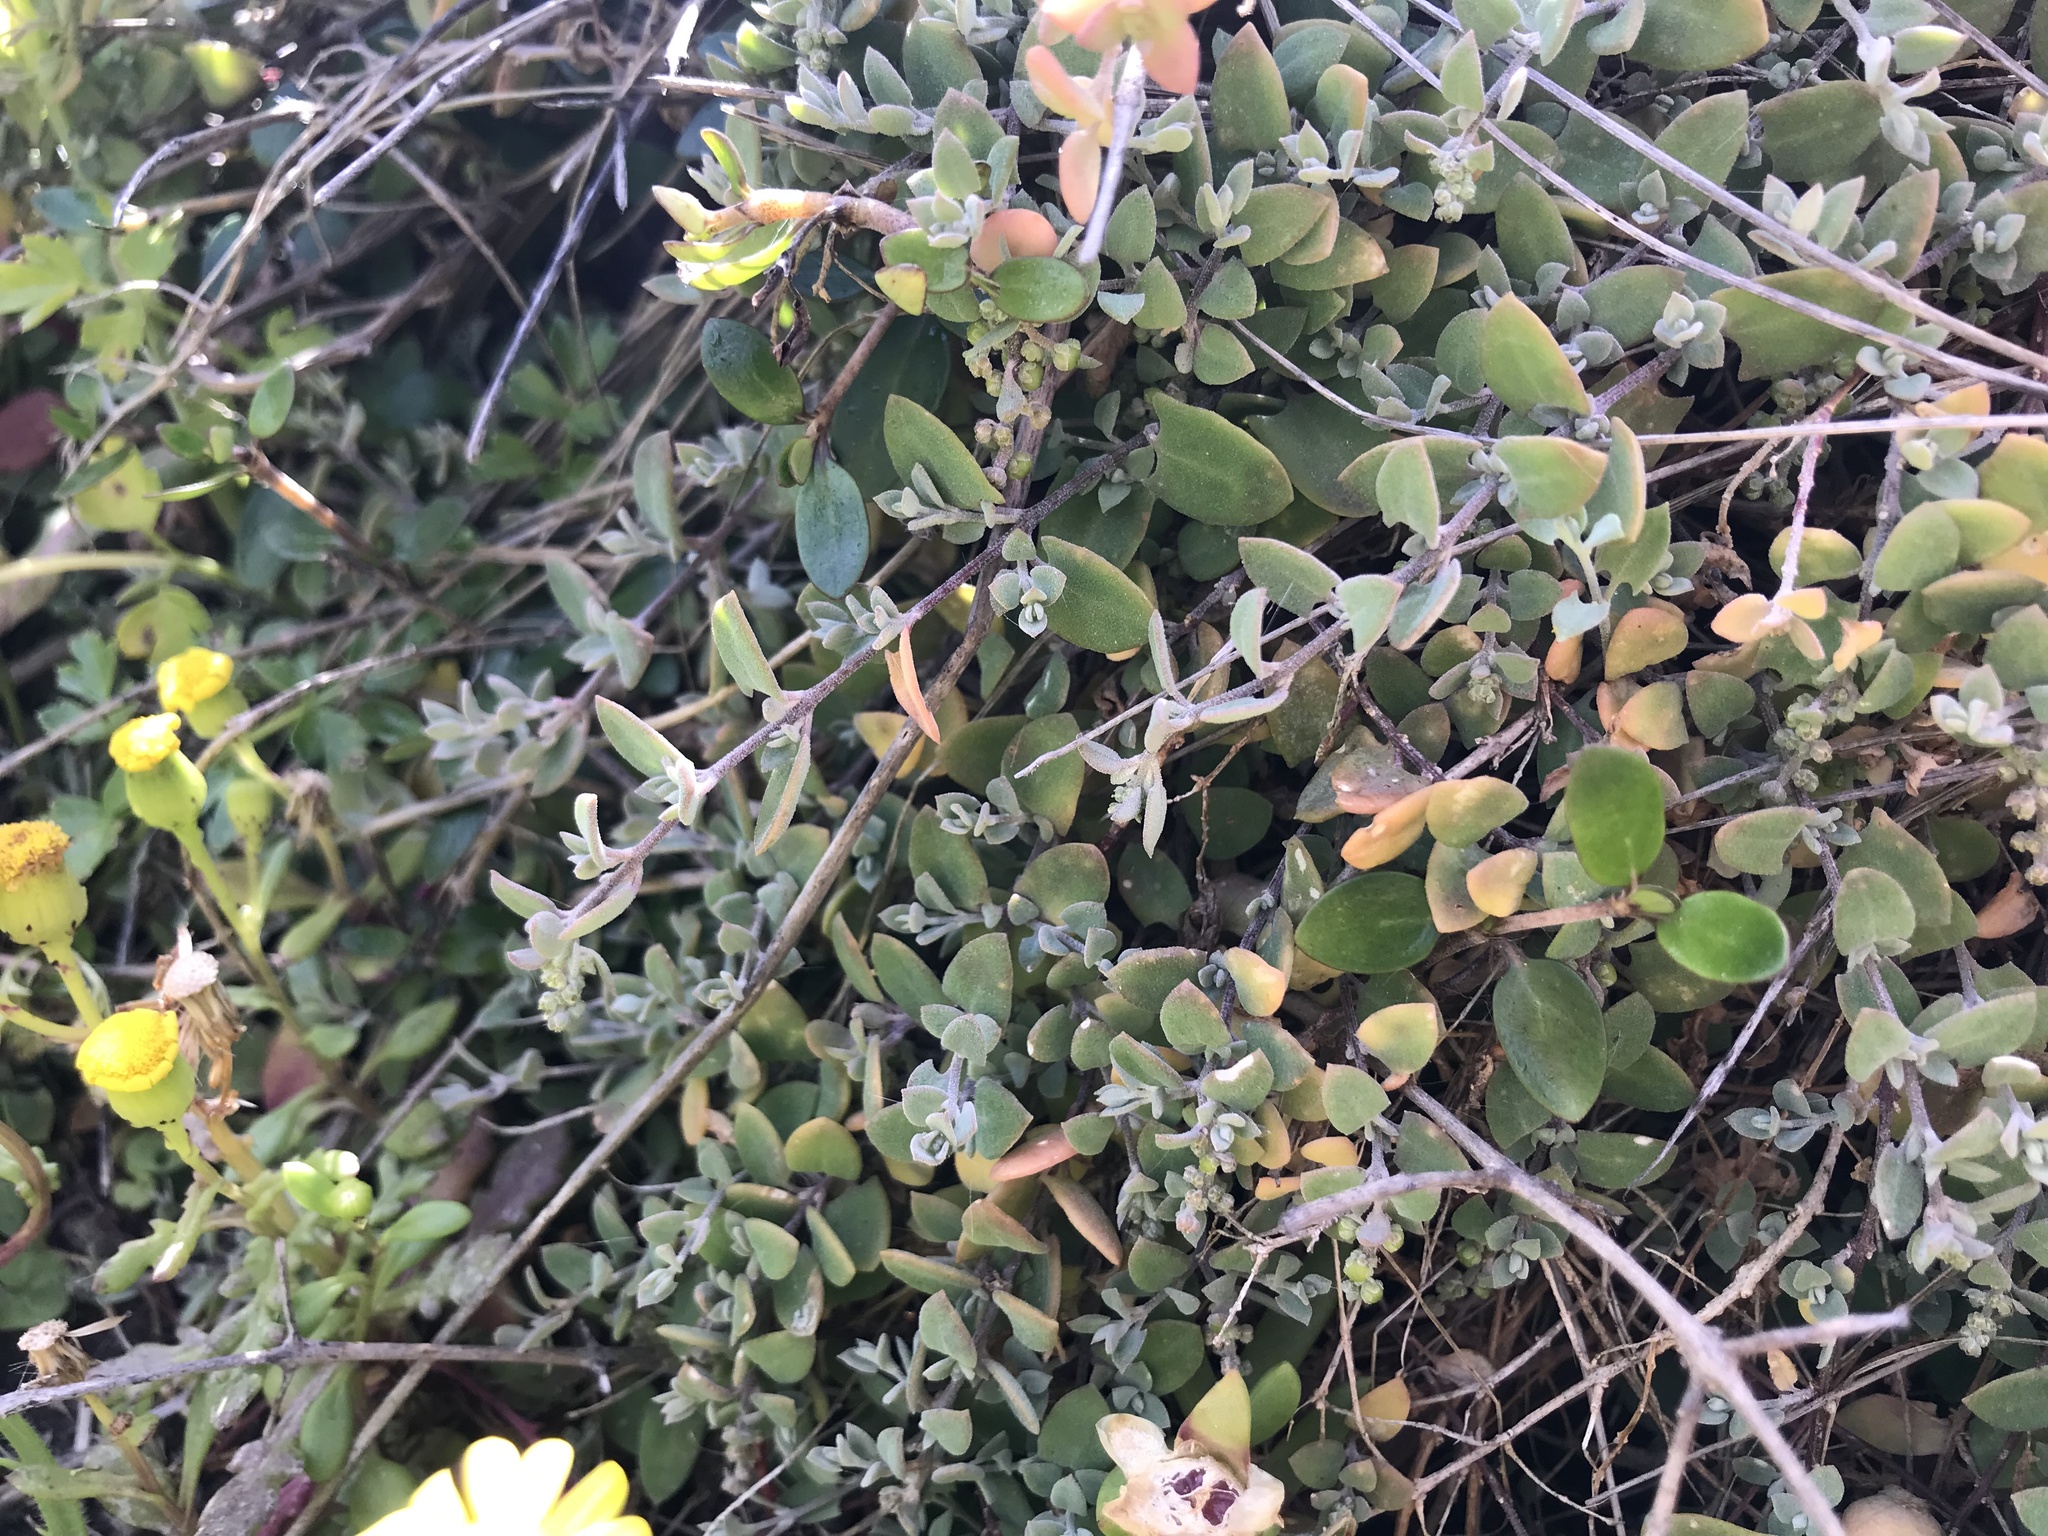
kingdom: Plantae
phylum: Tracheophyta
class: Magnoliopsida
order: Caryophyllales
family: Amaranthaceae
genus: Chenopodium
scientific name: Chenopodium triandrum
